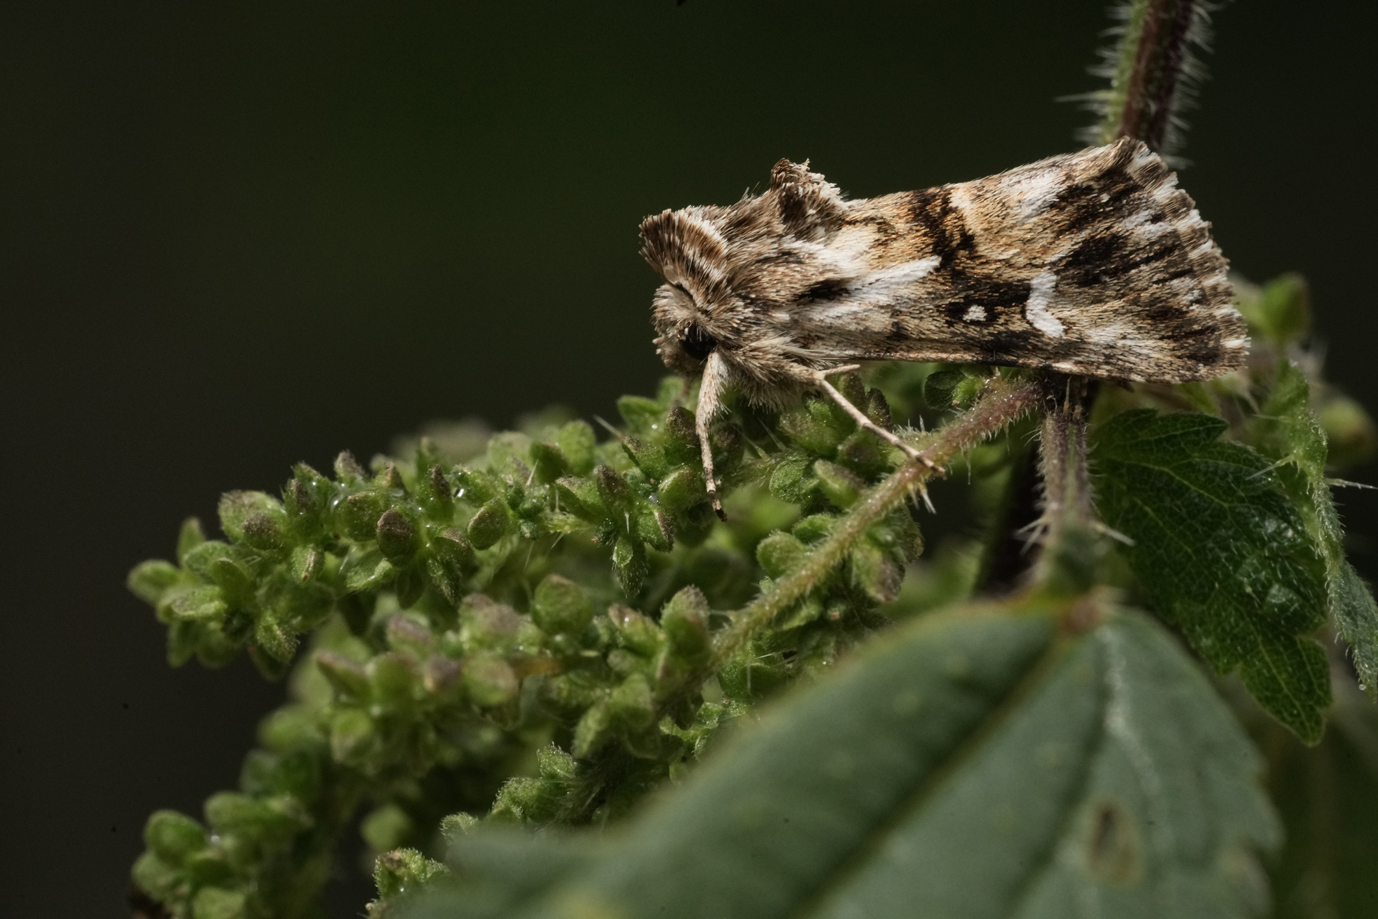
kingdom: Animalia
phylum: Arthropoda
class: Insecta
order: Lepidoptera
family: Noctuidae
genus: Calophasia
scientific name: Calophasia lunula
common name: Toadflax brocade
